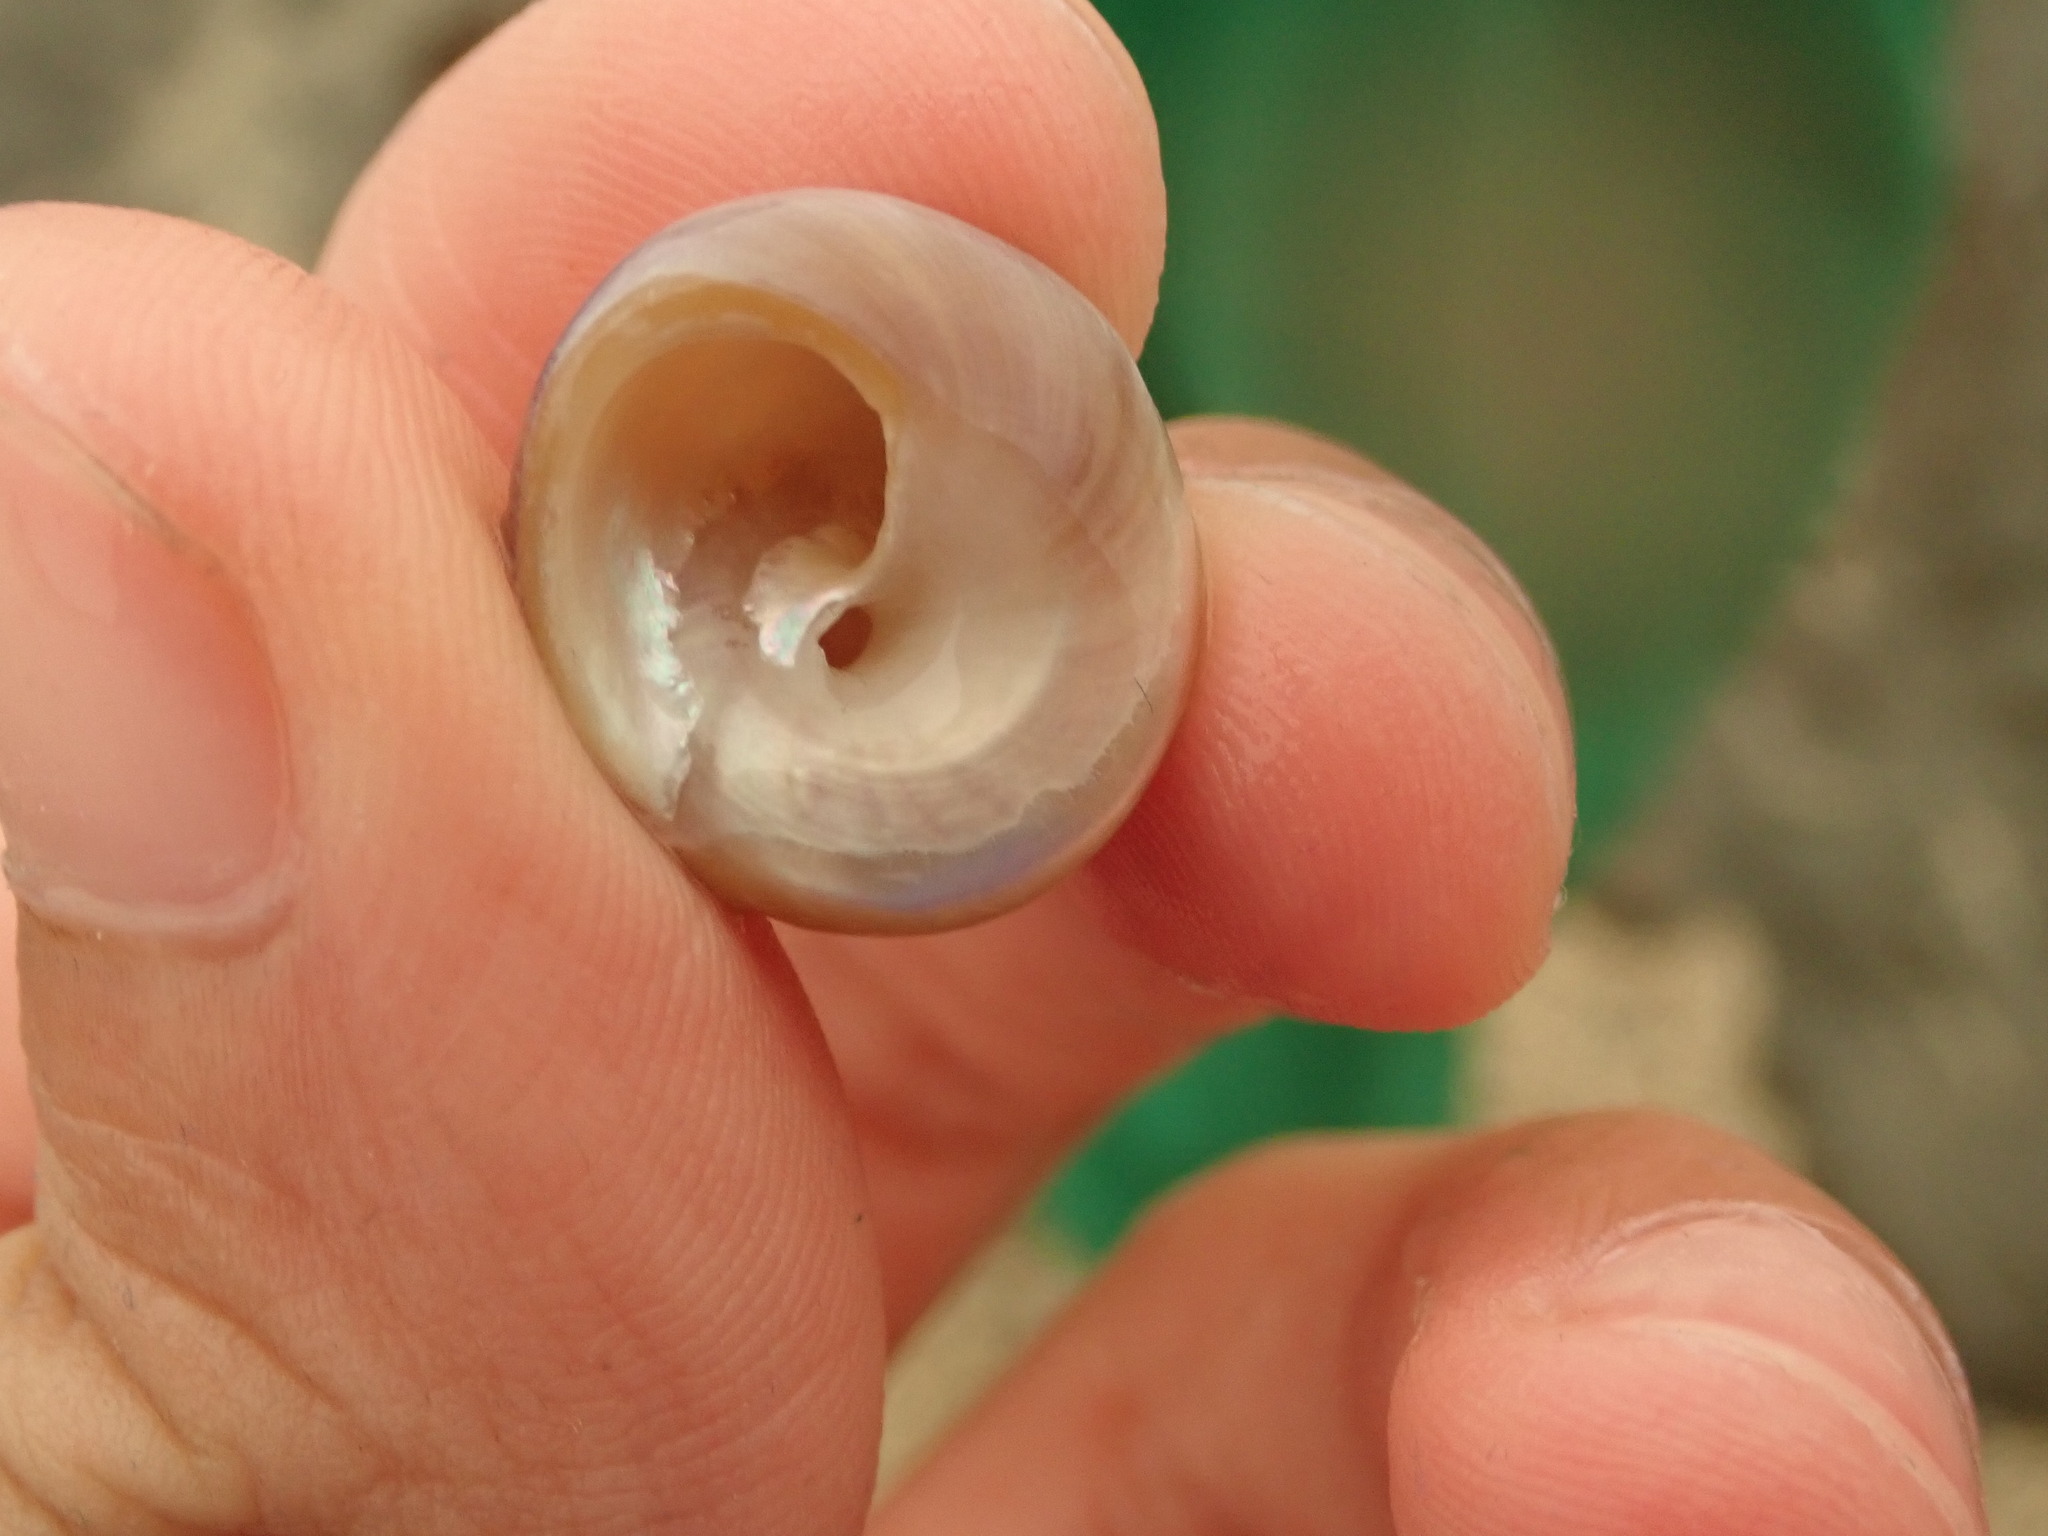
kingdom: Animalia
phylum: Mollusca
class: Gastropoda
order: Trochida
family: Tegulidae
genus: Tegula
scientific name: Tegula pulligo
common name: Brown turban
